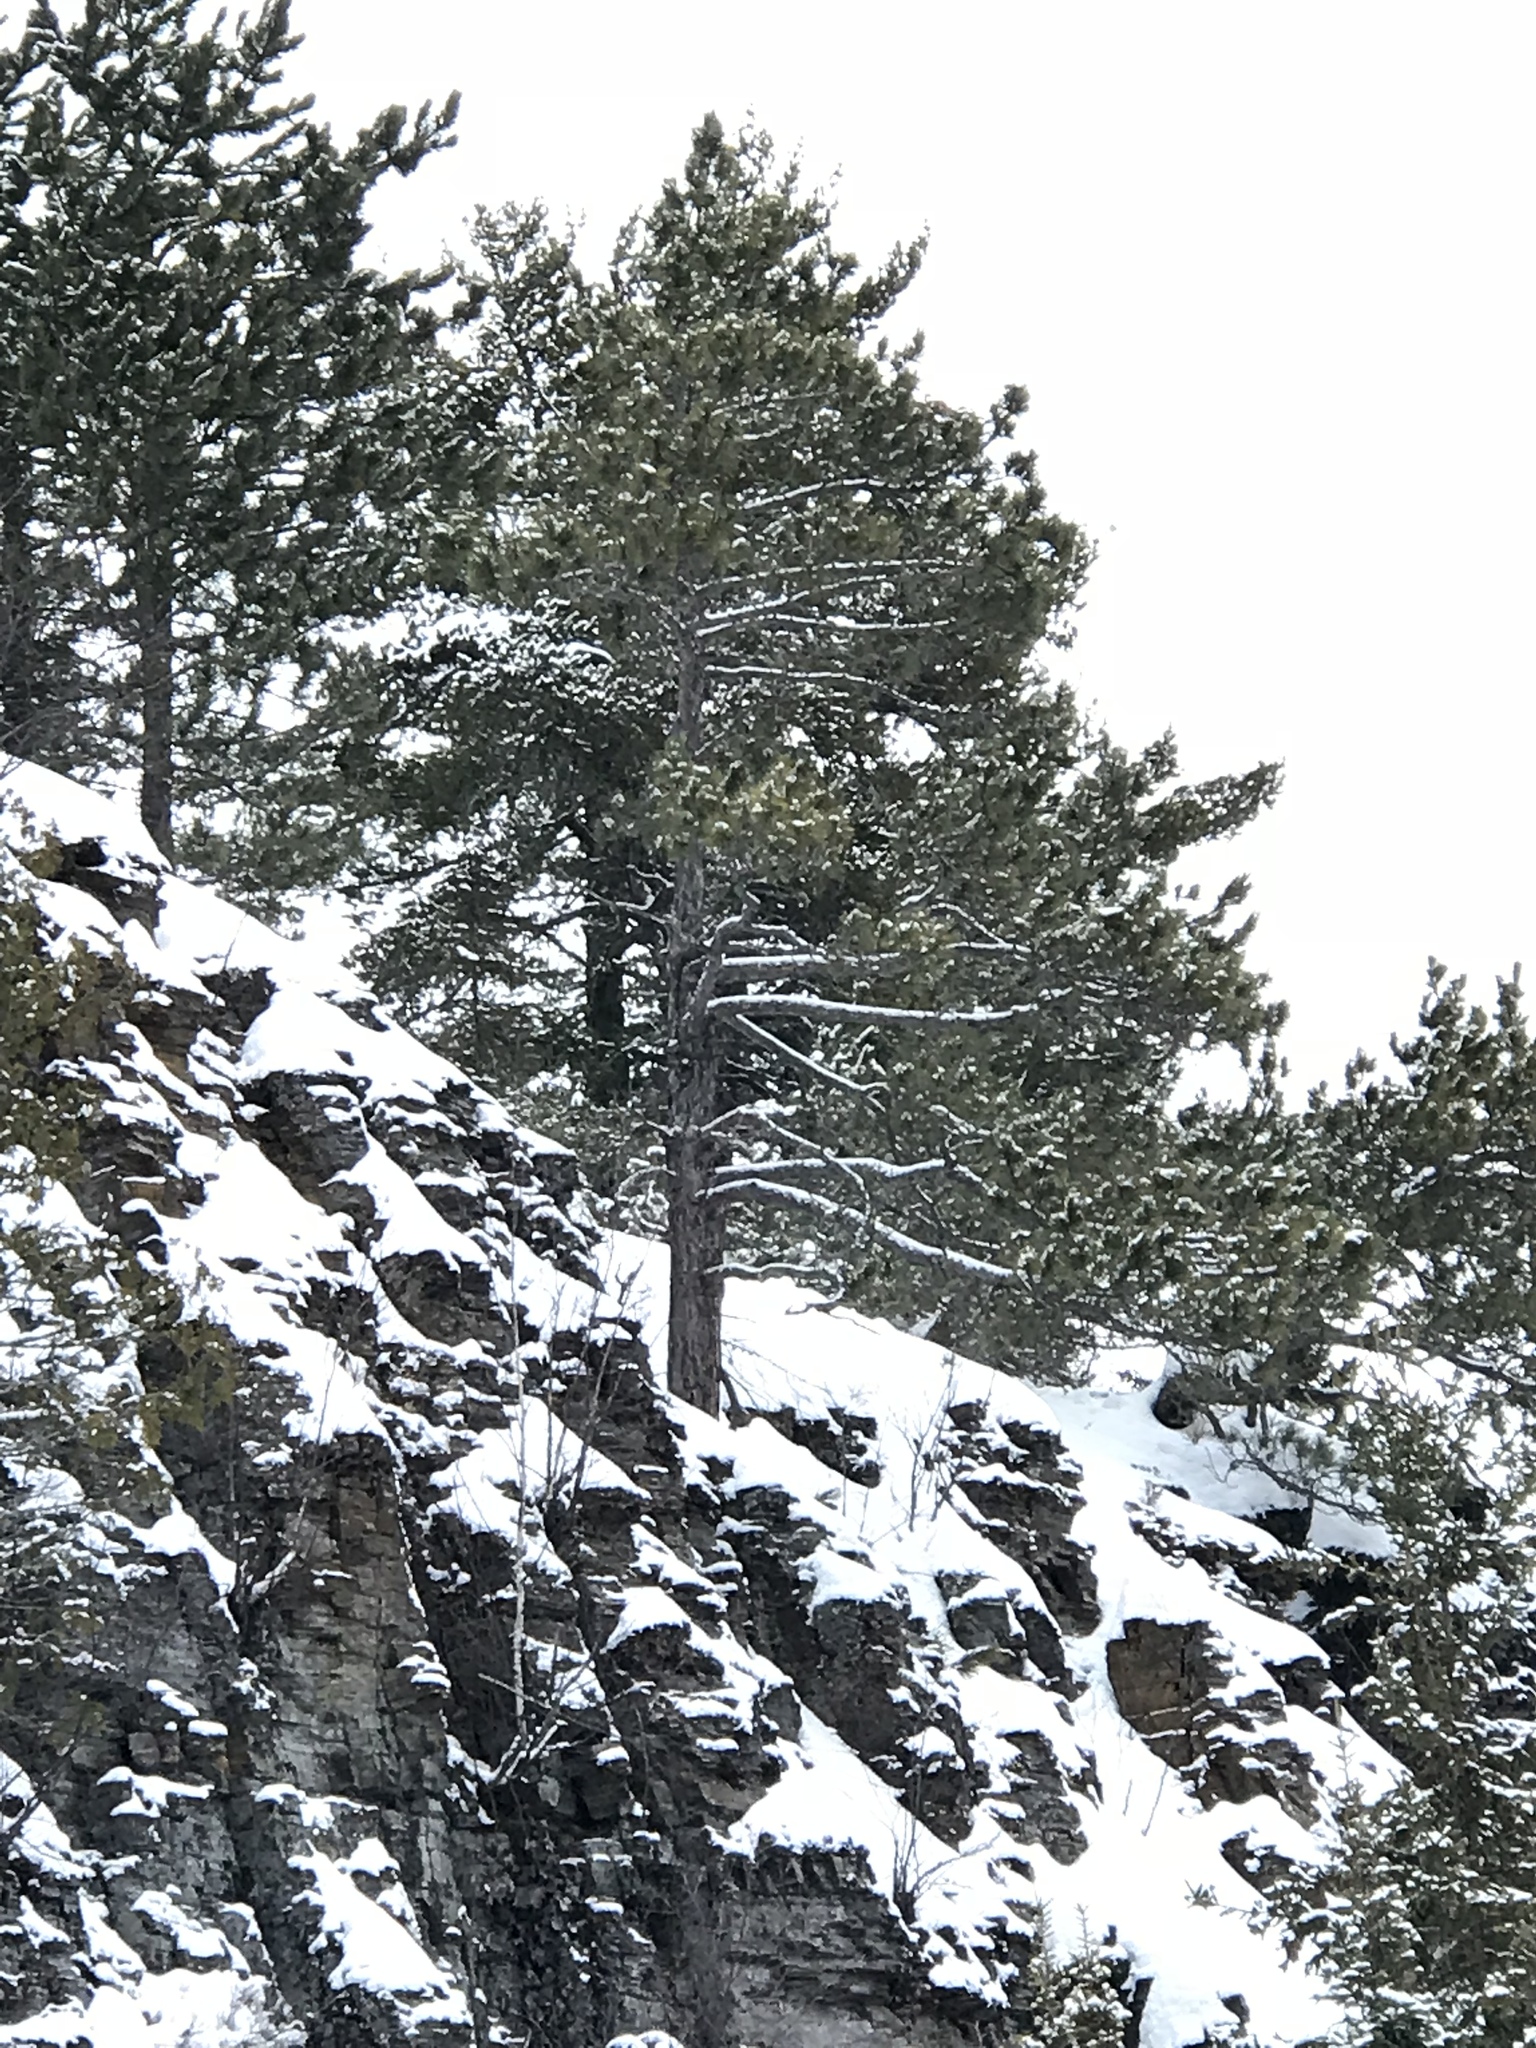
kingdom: Plantae
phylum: Tracheophyta
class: Pinopsida
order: Pinales
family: Pinaceae
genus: Pinus
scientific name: Pinus resinosa
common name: Norway pine
